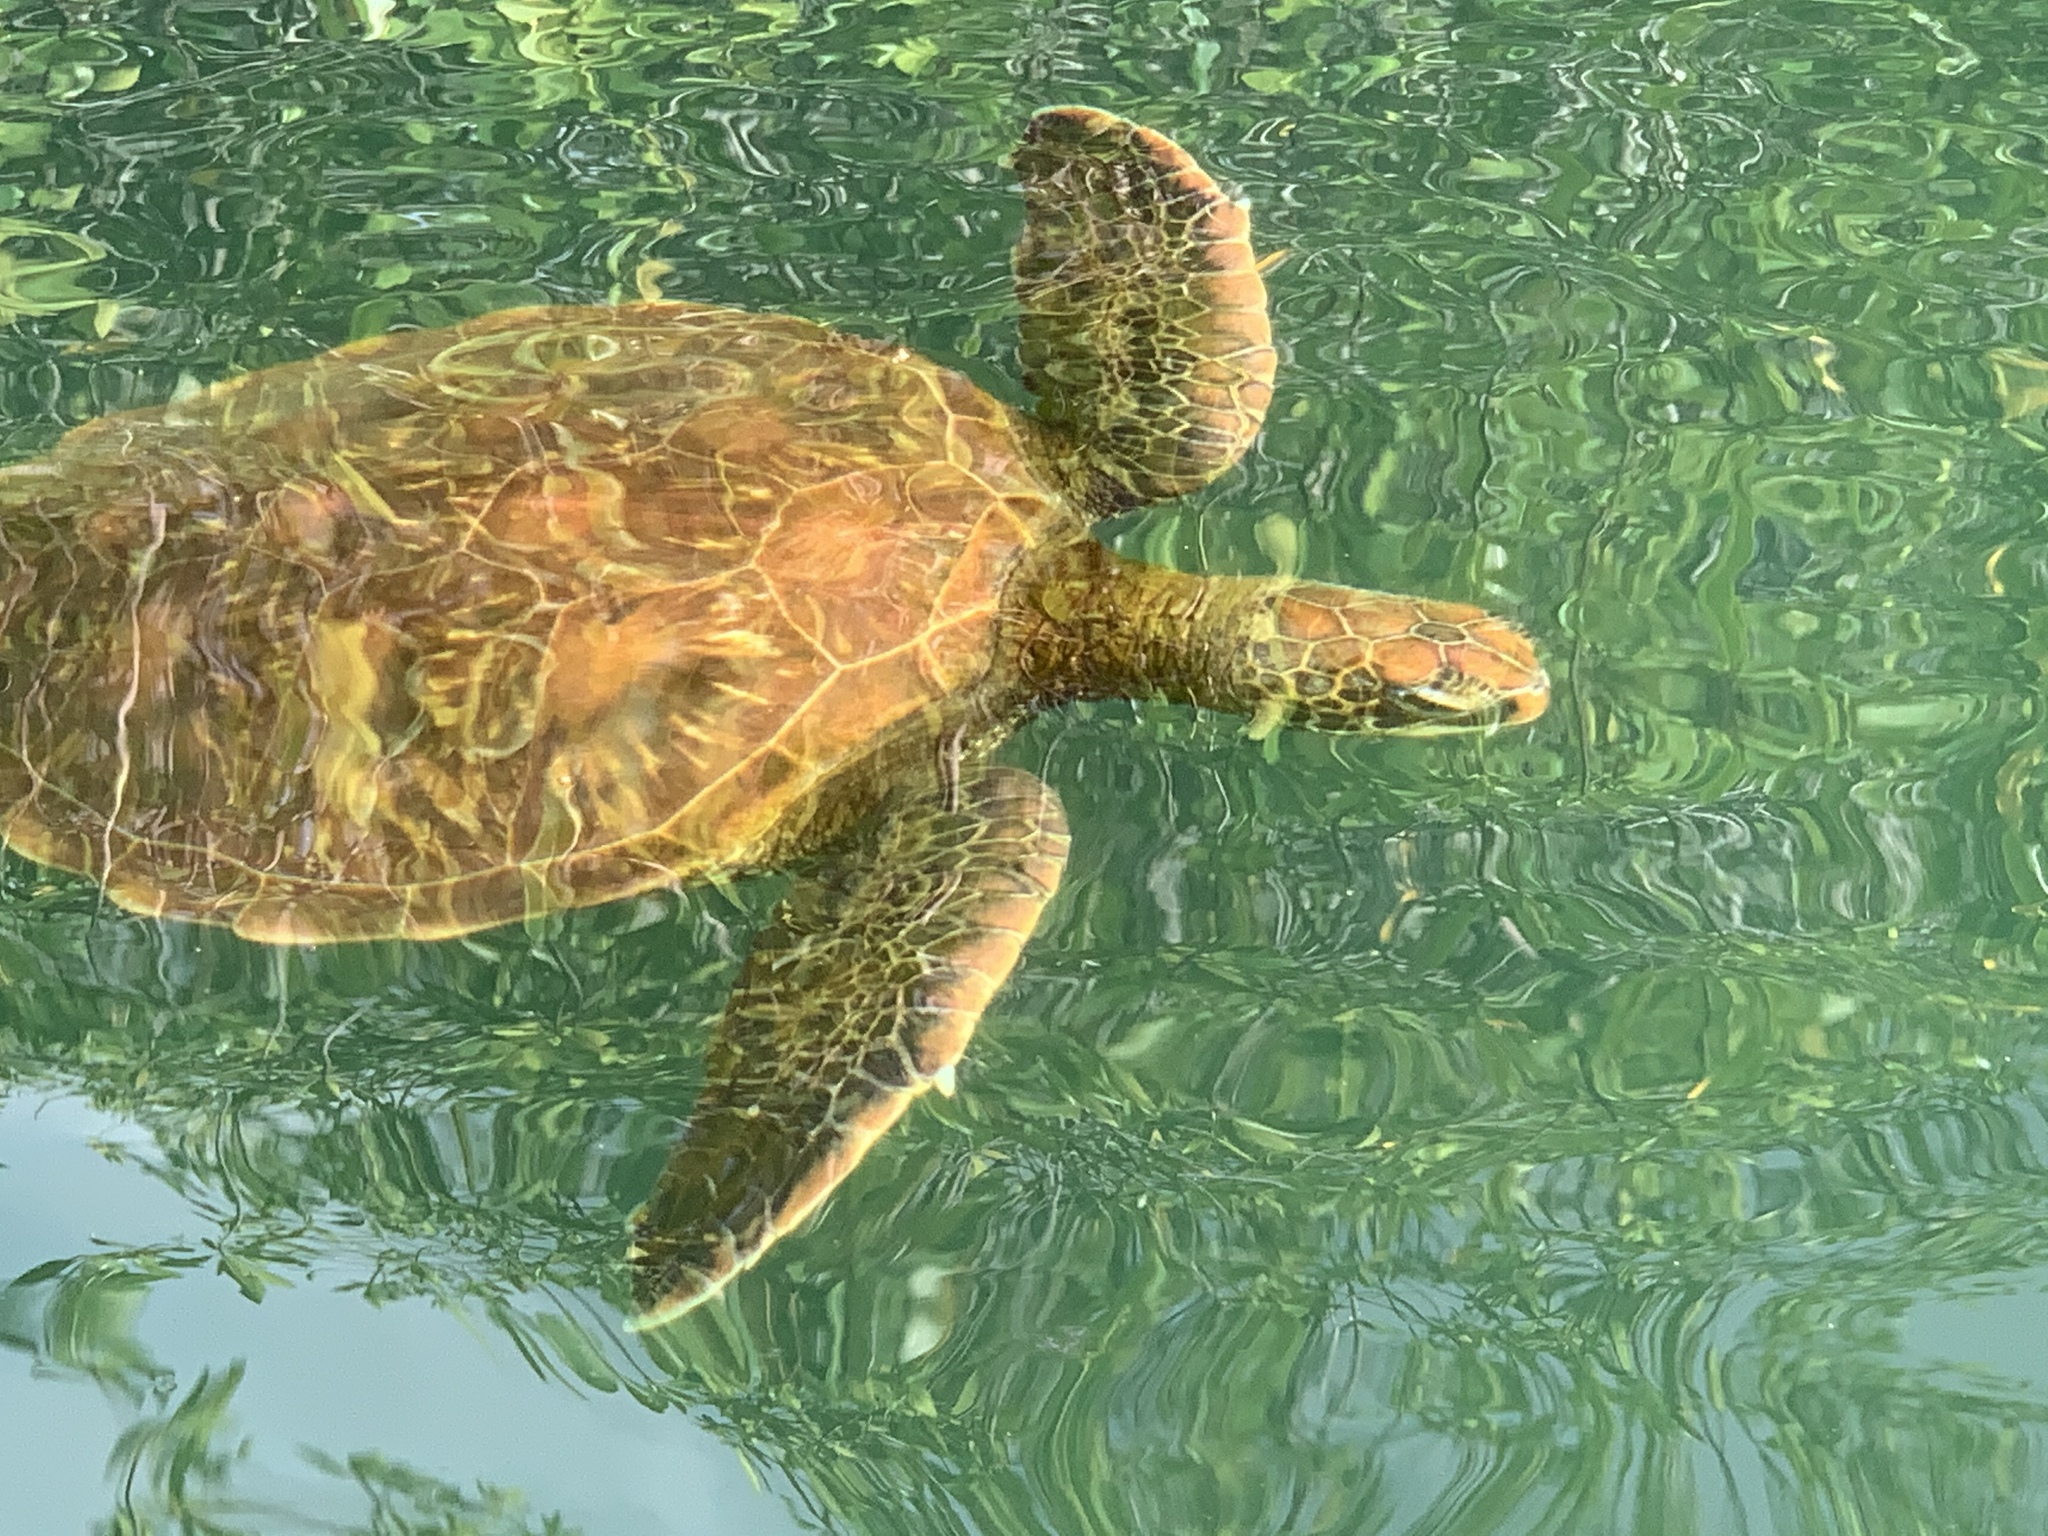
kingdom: Animalia
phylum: Chordata
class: Testudines
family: Cheloniidae
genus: Chelonia
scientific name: Chelonia mydas
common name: Green turtle
